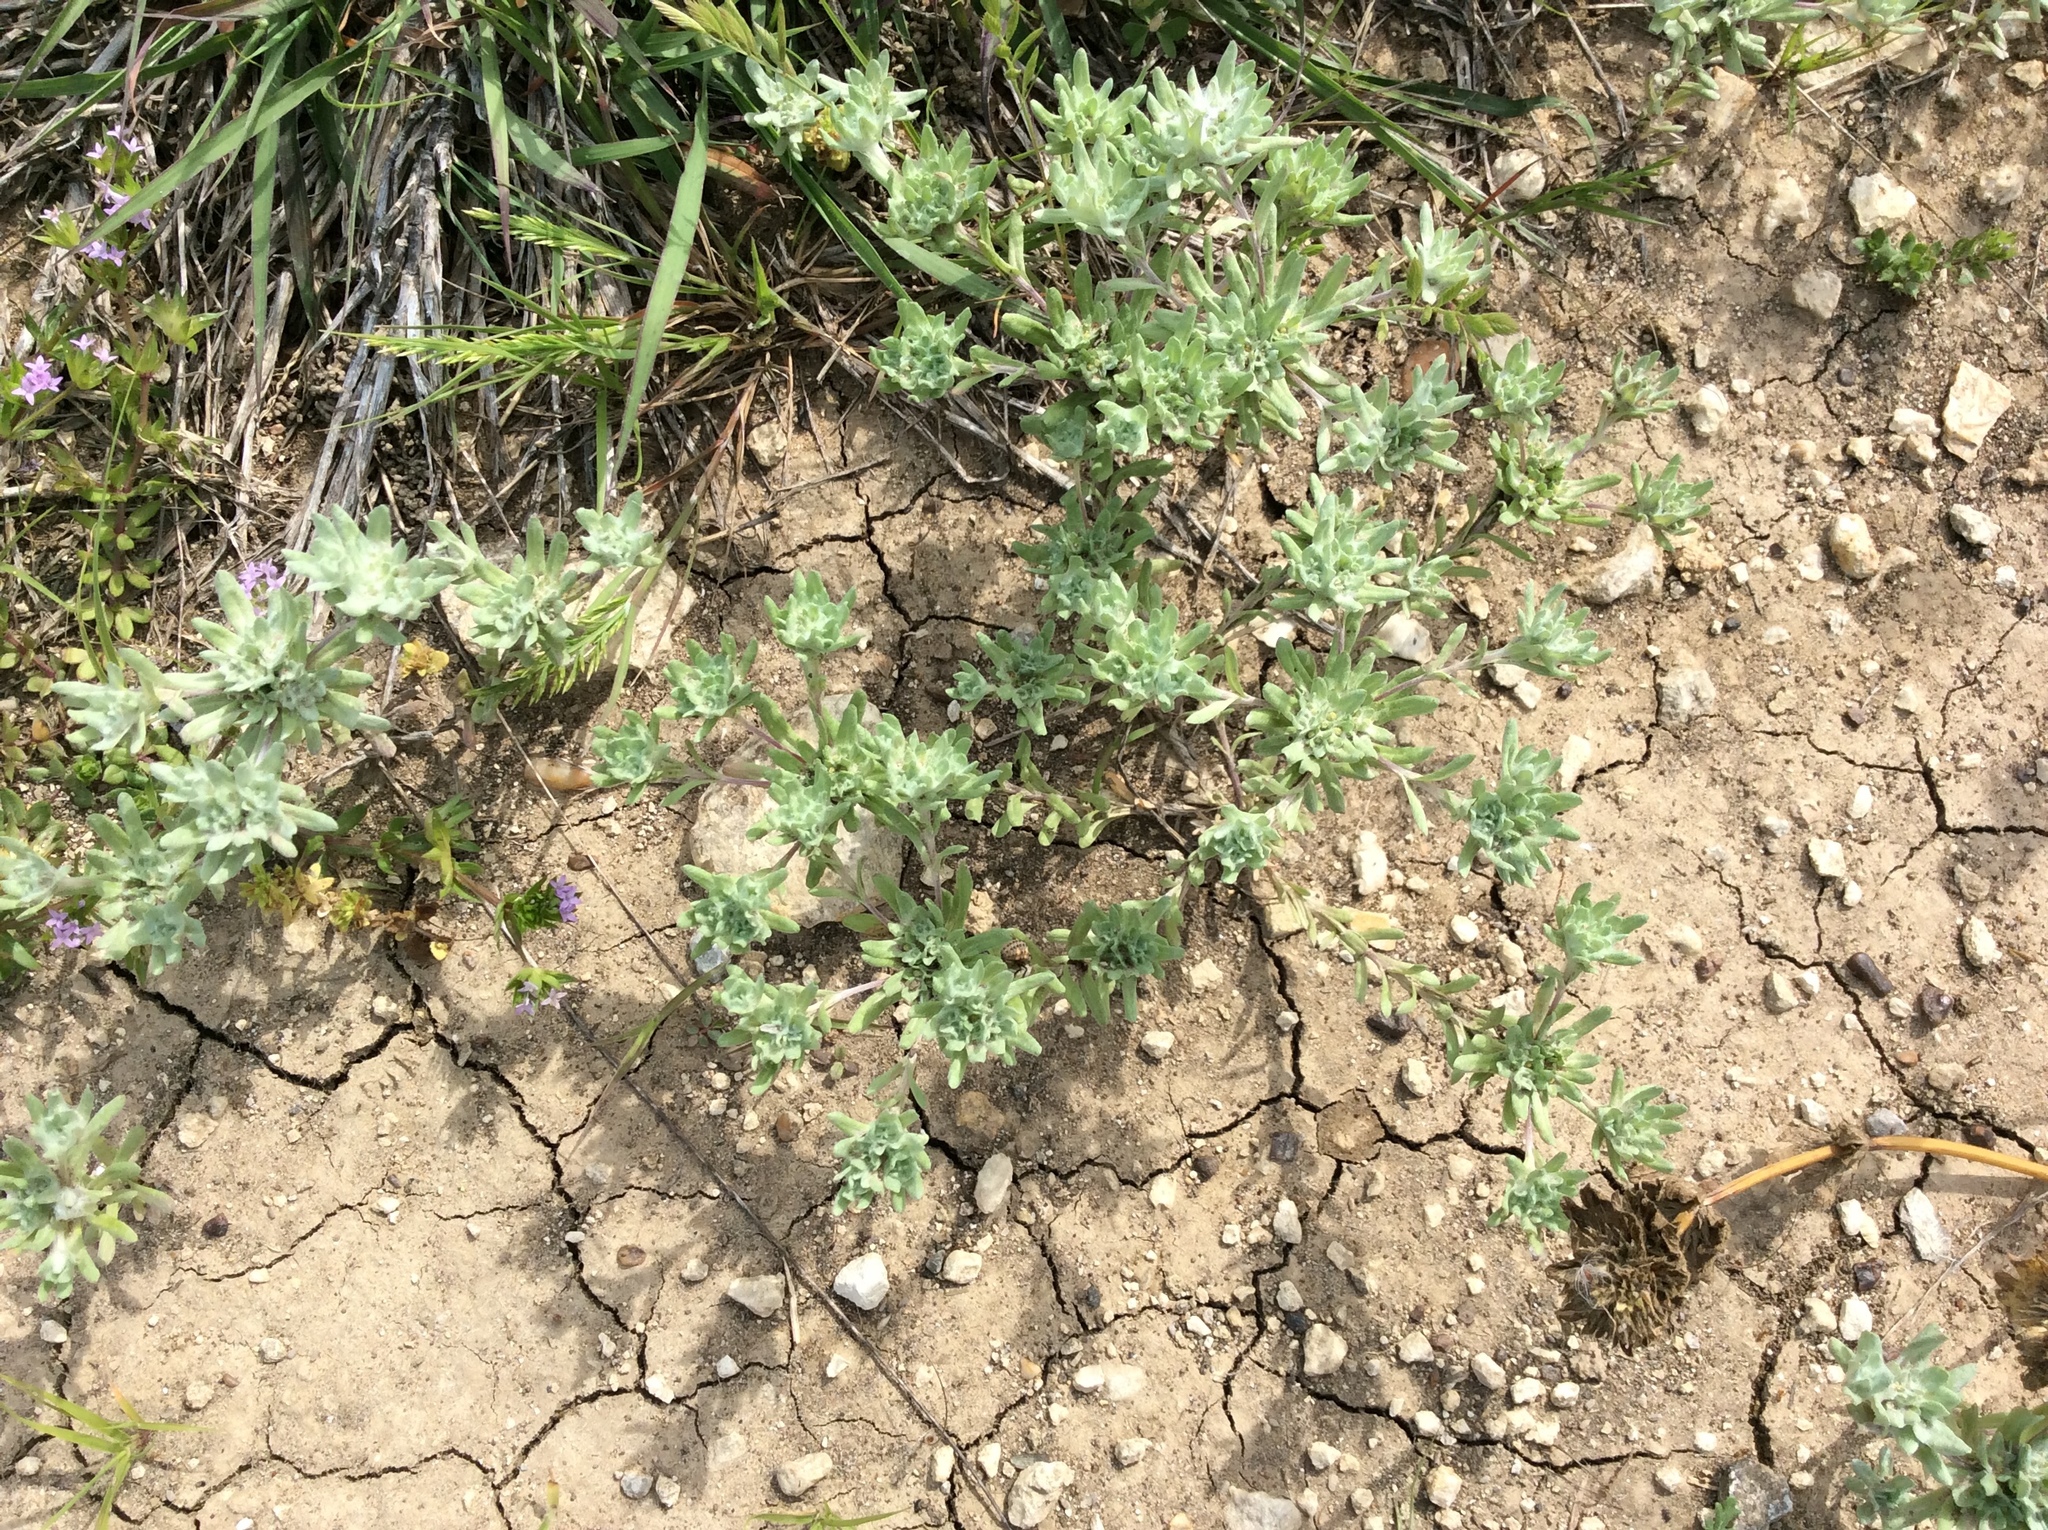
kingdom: Plantae
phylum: Tracheophyta
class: Magnoliopsida
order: Asterales
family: Asteraceae
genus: Diaperia
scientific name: Diaperia prolifera
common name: Big-head rabbit-tobacco
